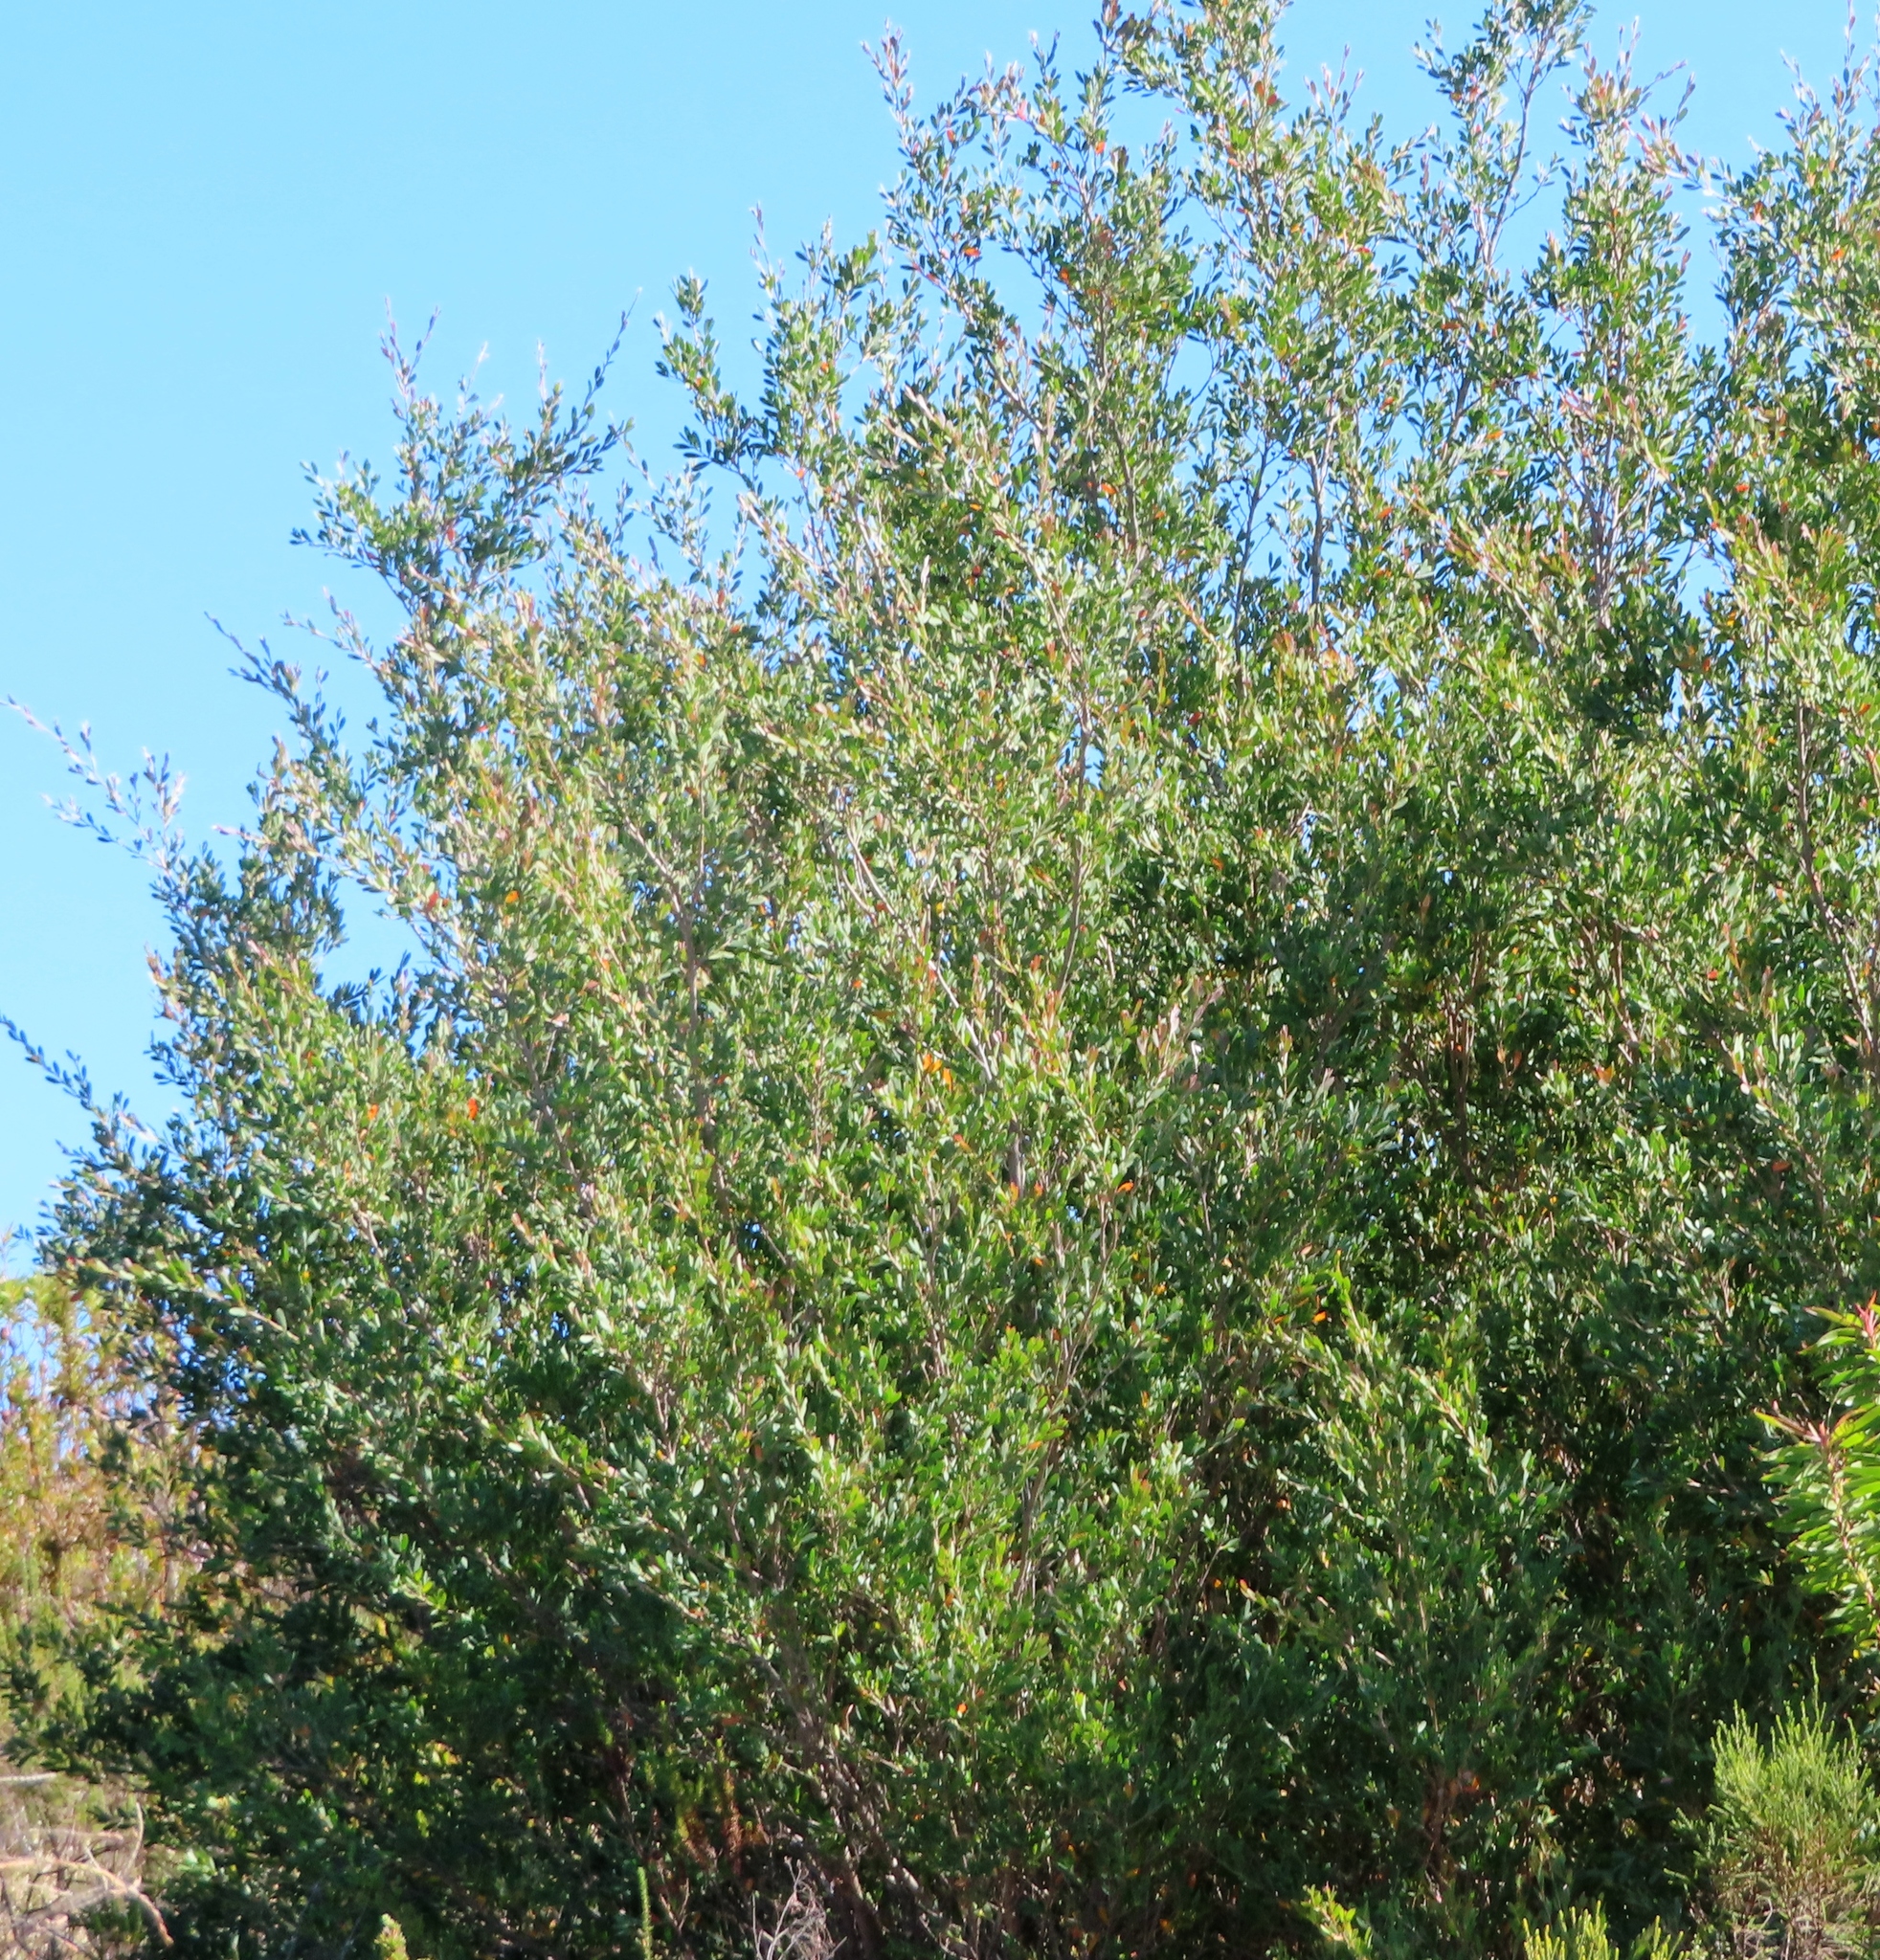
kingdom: Plantae
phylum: Tracheophyta
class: Magnoliopsida
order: Myrtales
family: Myrtaceae
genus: Leptospermum
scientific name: Leptospermum laevigatum
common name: Australian teatree
